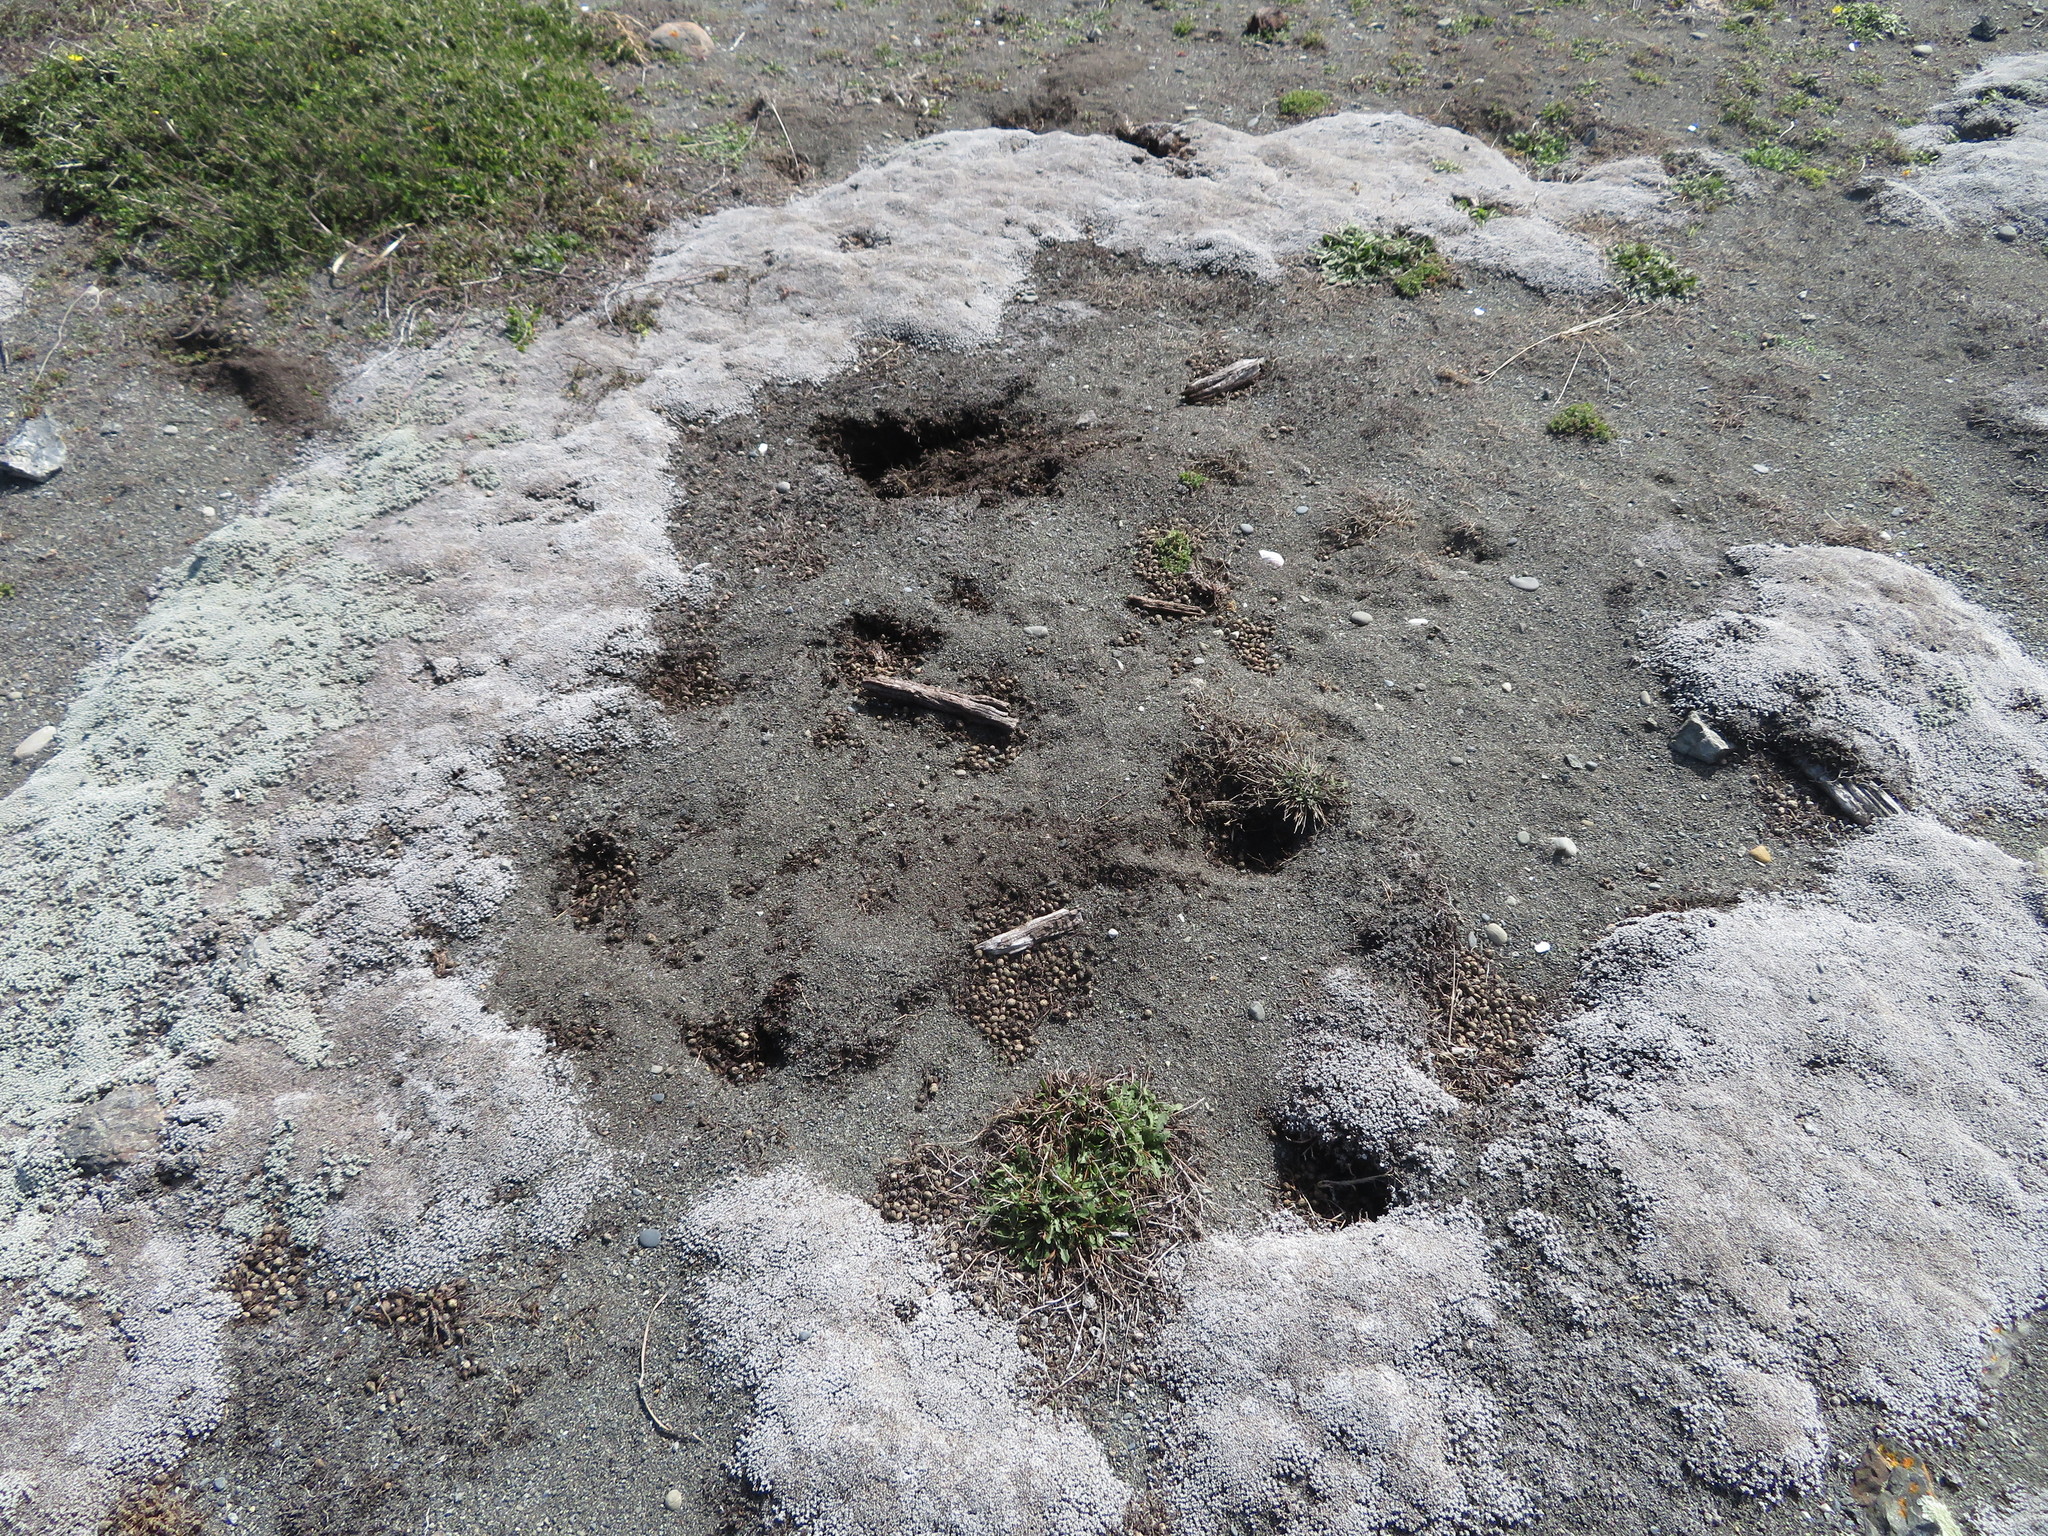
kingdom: Animalia
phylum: Chordata
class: Mammalia
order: Lagomorpha
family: Leporidae
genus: Oryctolagus
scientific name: Oryctolagus cuniculus
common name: European rabbit
